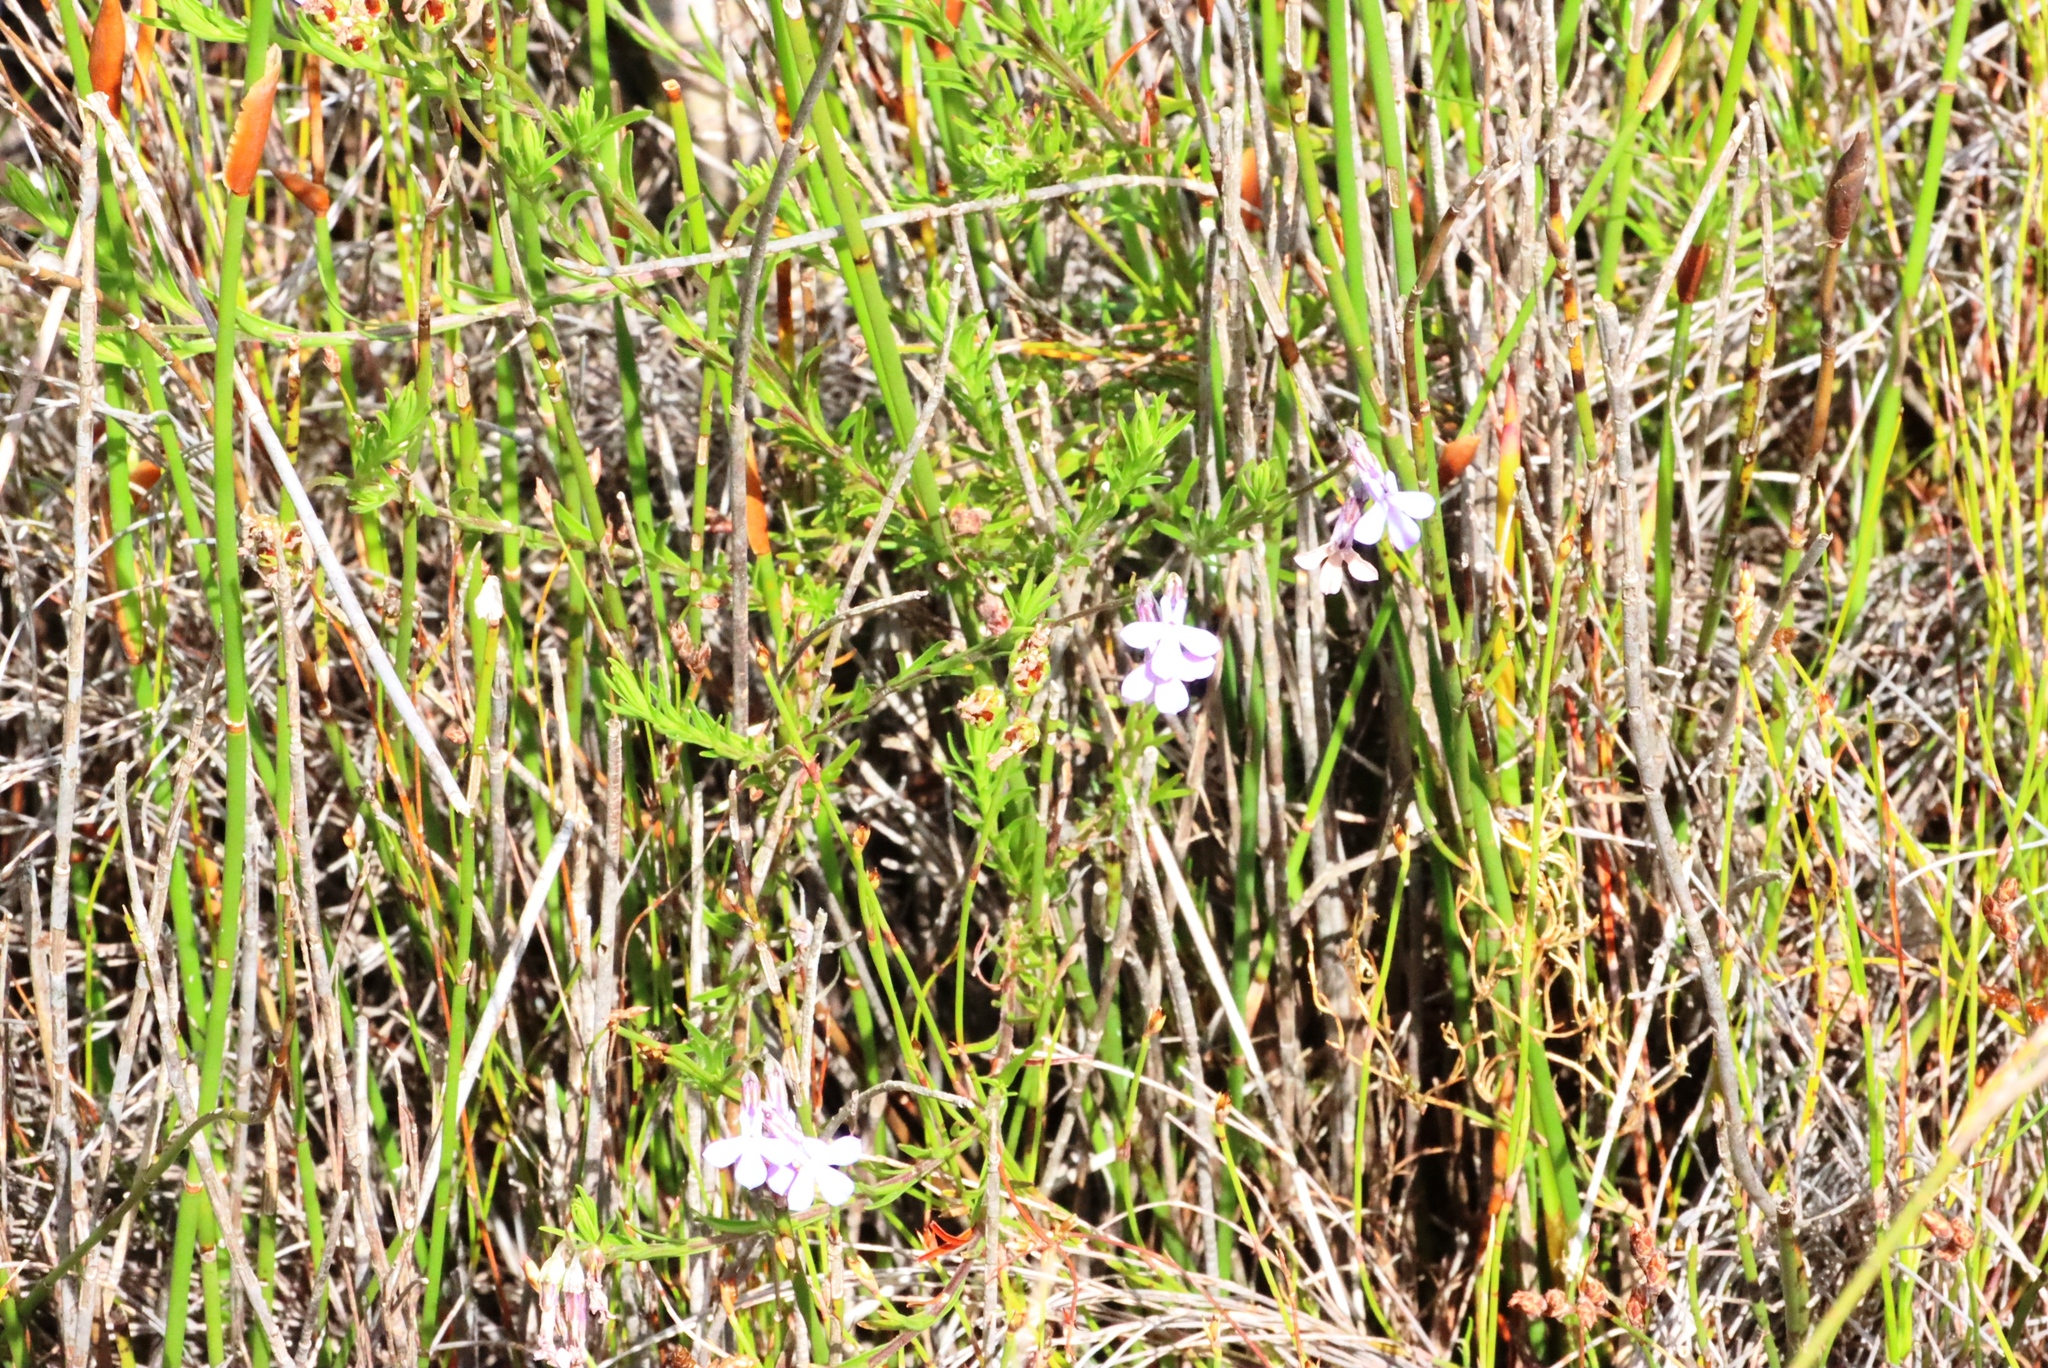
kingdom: Plantae
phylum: Tracheophyta
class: Magnoliopsida
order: Asterales
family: Campanulaceae
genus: Lobelia
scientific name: Lobelia pinifolia
